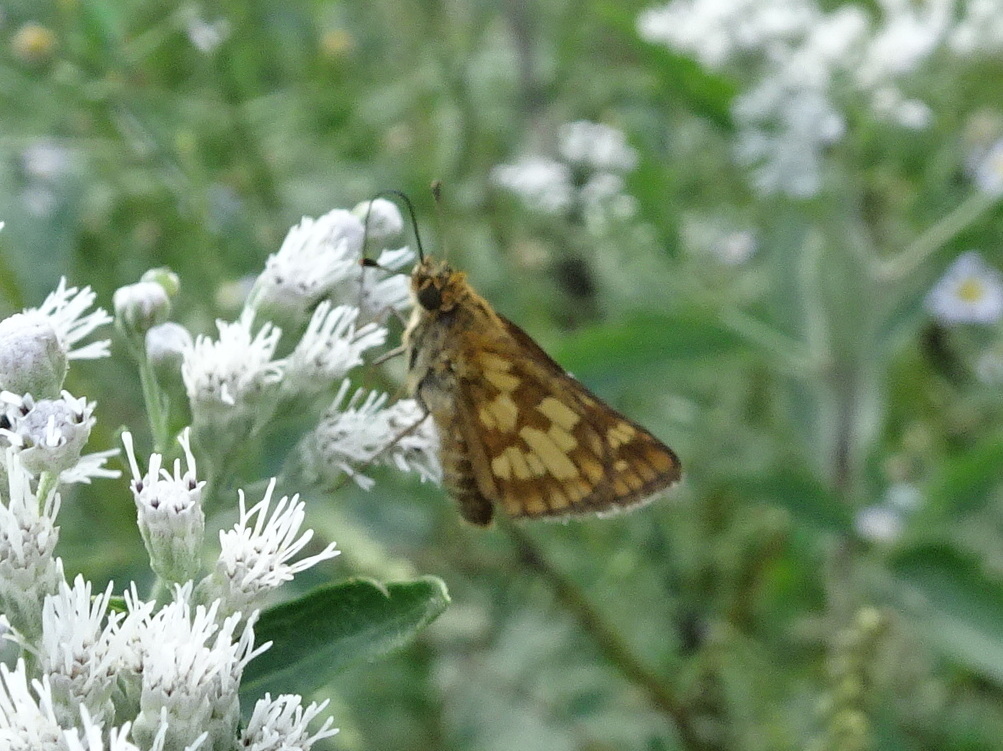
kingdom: Animalia
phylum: Arthropoda
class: Insecta
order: Lepidoptera
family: Hesperiidae
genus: Polites
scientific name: Polites coras
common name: Peck's skipper
